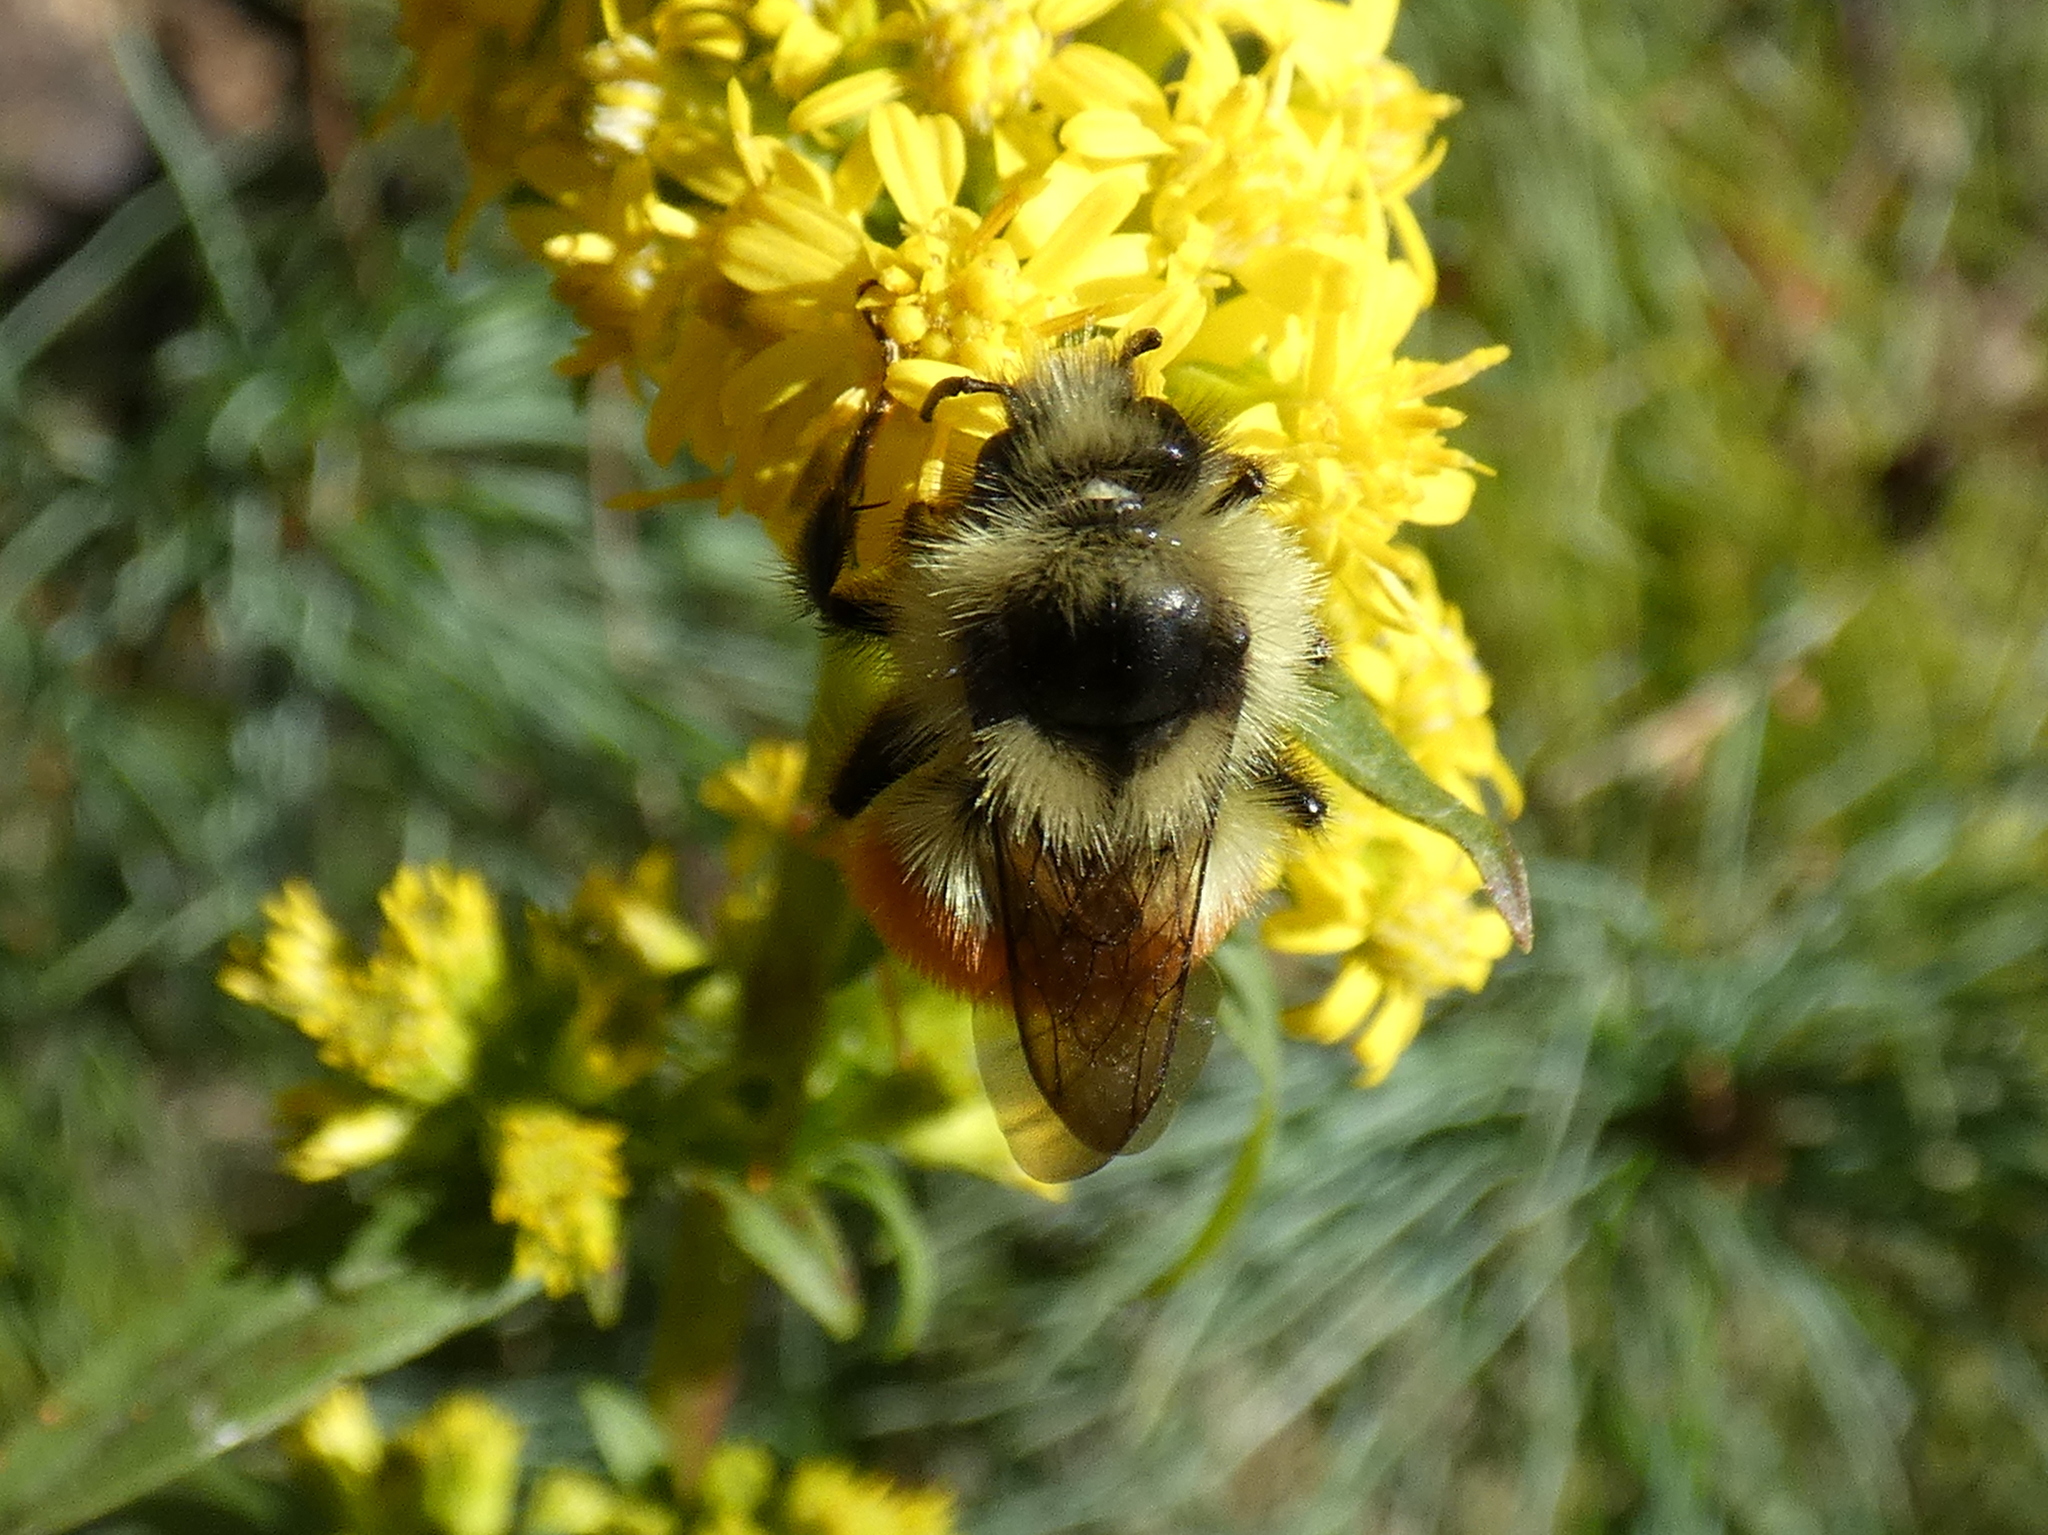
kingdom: Animalia
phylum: Arthropoda
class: Insecta
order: Hymenoptera
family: Apidae
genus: Bombus
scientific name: Bombus ternarius
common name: Tri-colored bumble bee
